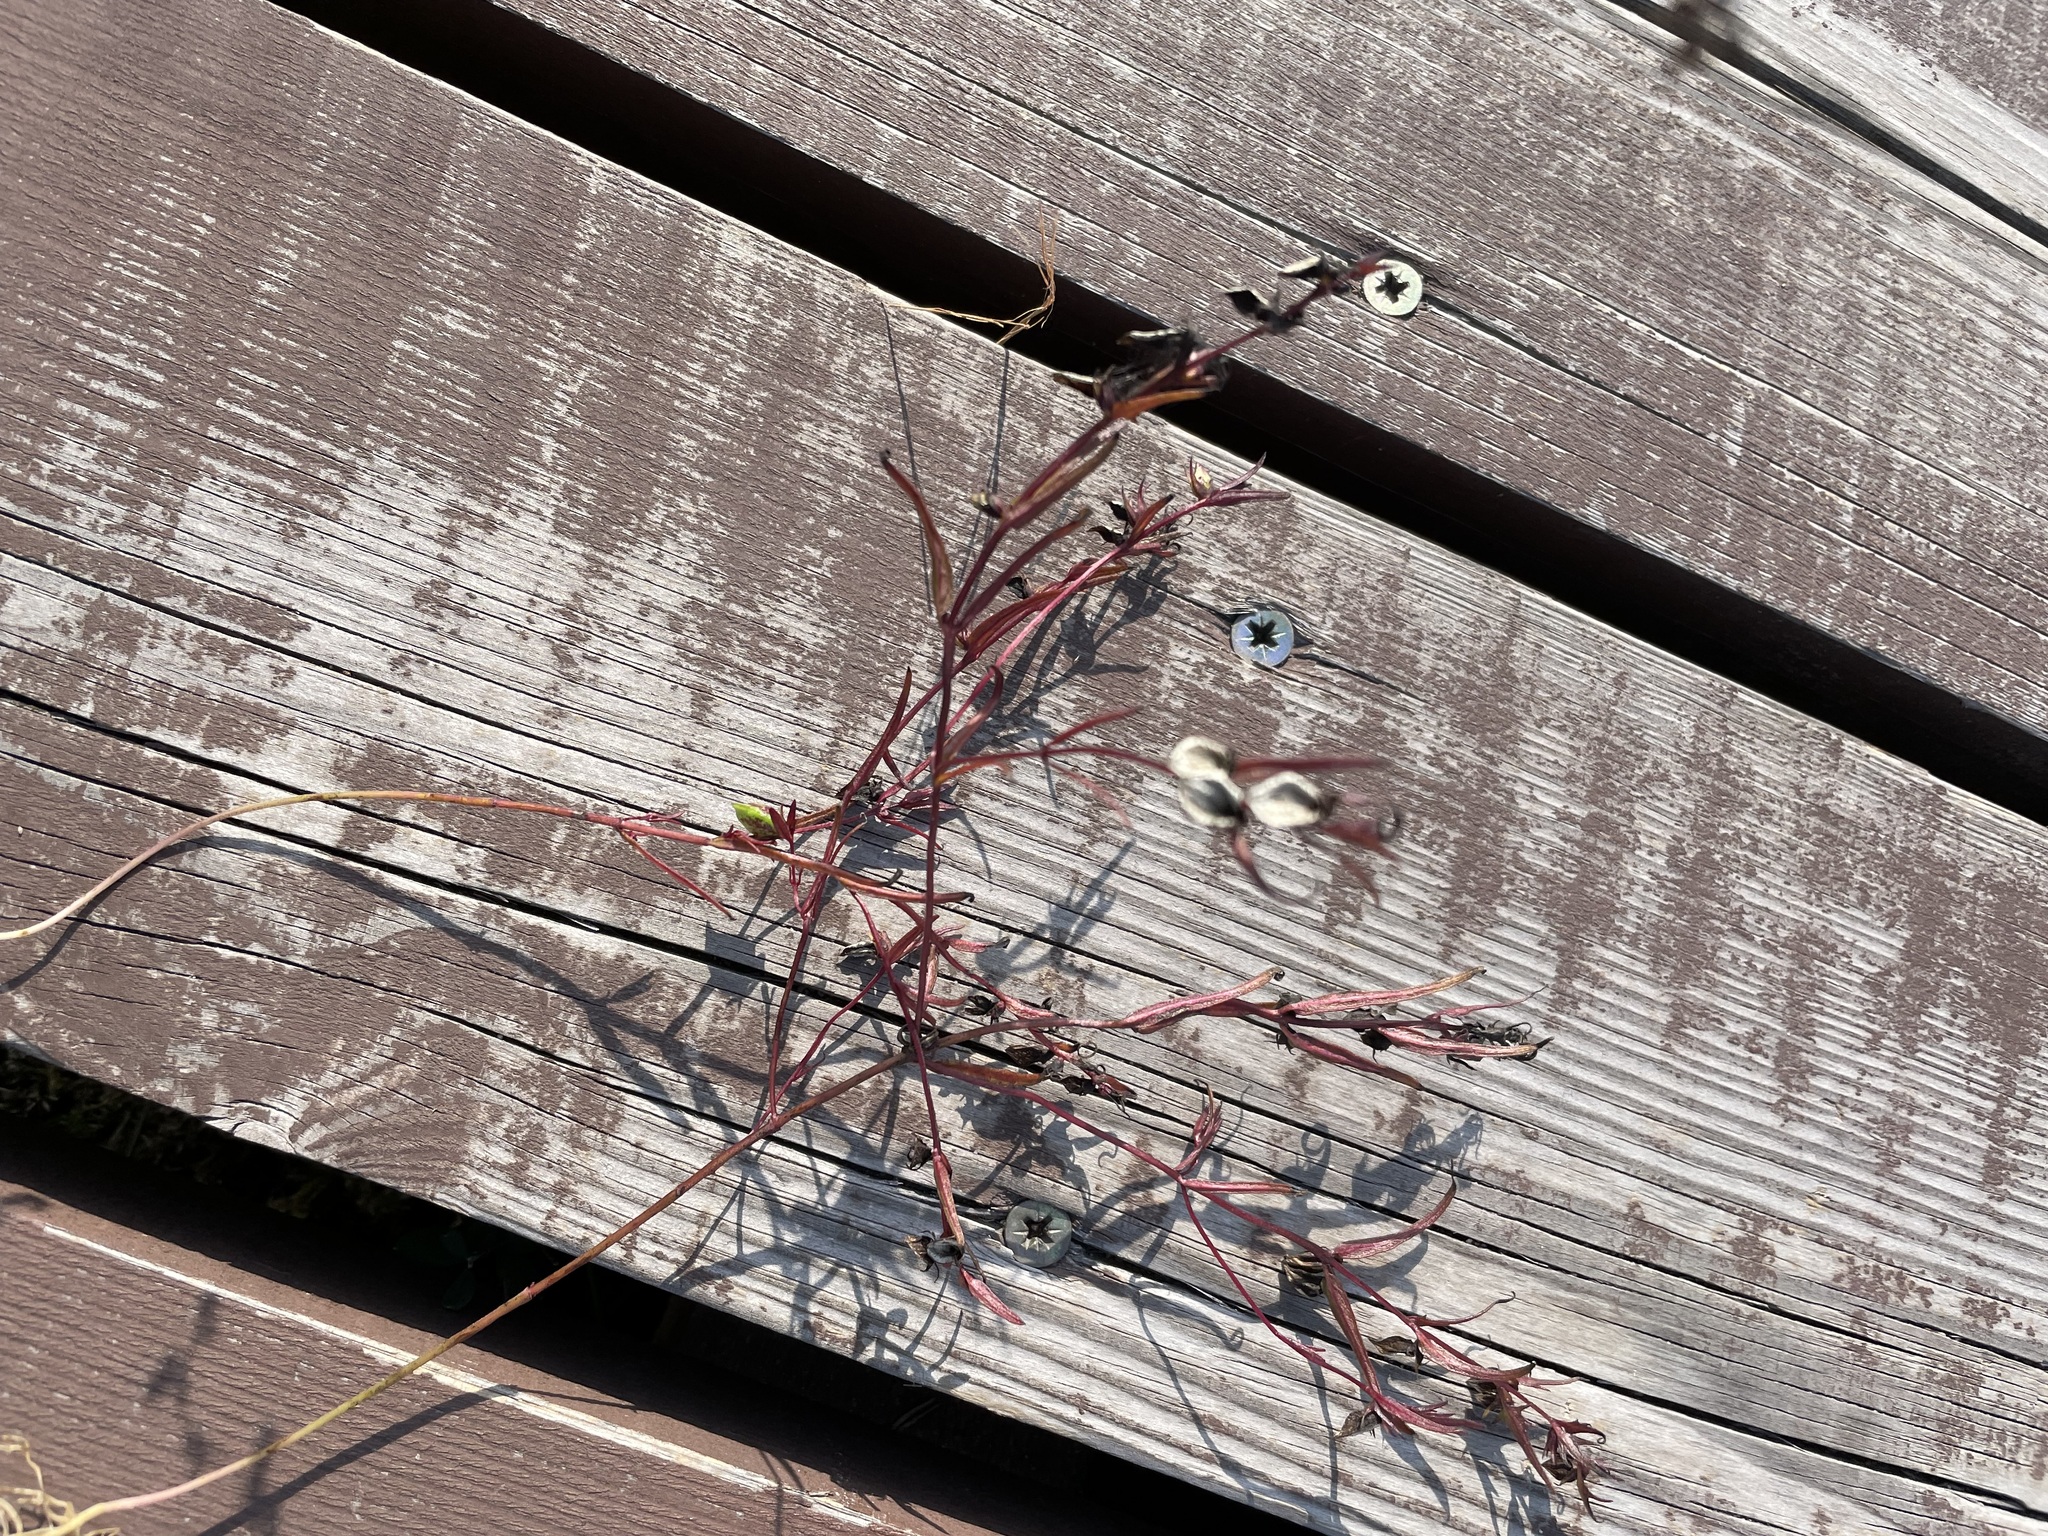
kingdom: Plantae
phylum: Tracheophyta
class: Magnoliopsida
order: Lamiales
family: Orobanchaceae
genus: Melampyrum
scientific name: Melampyrum pratense
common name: Common cow-wheat
